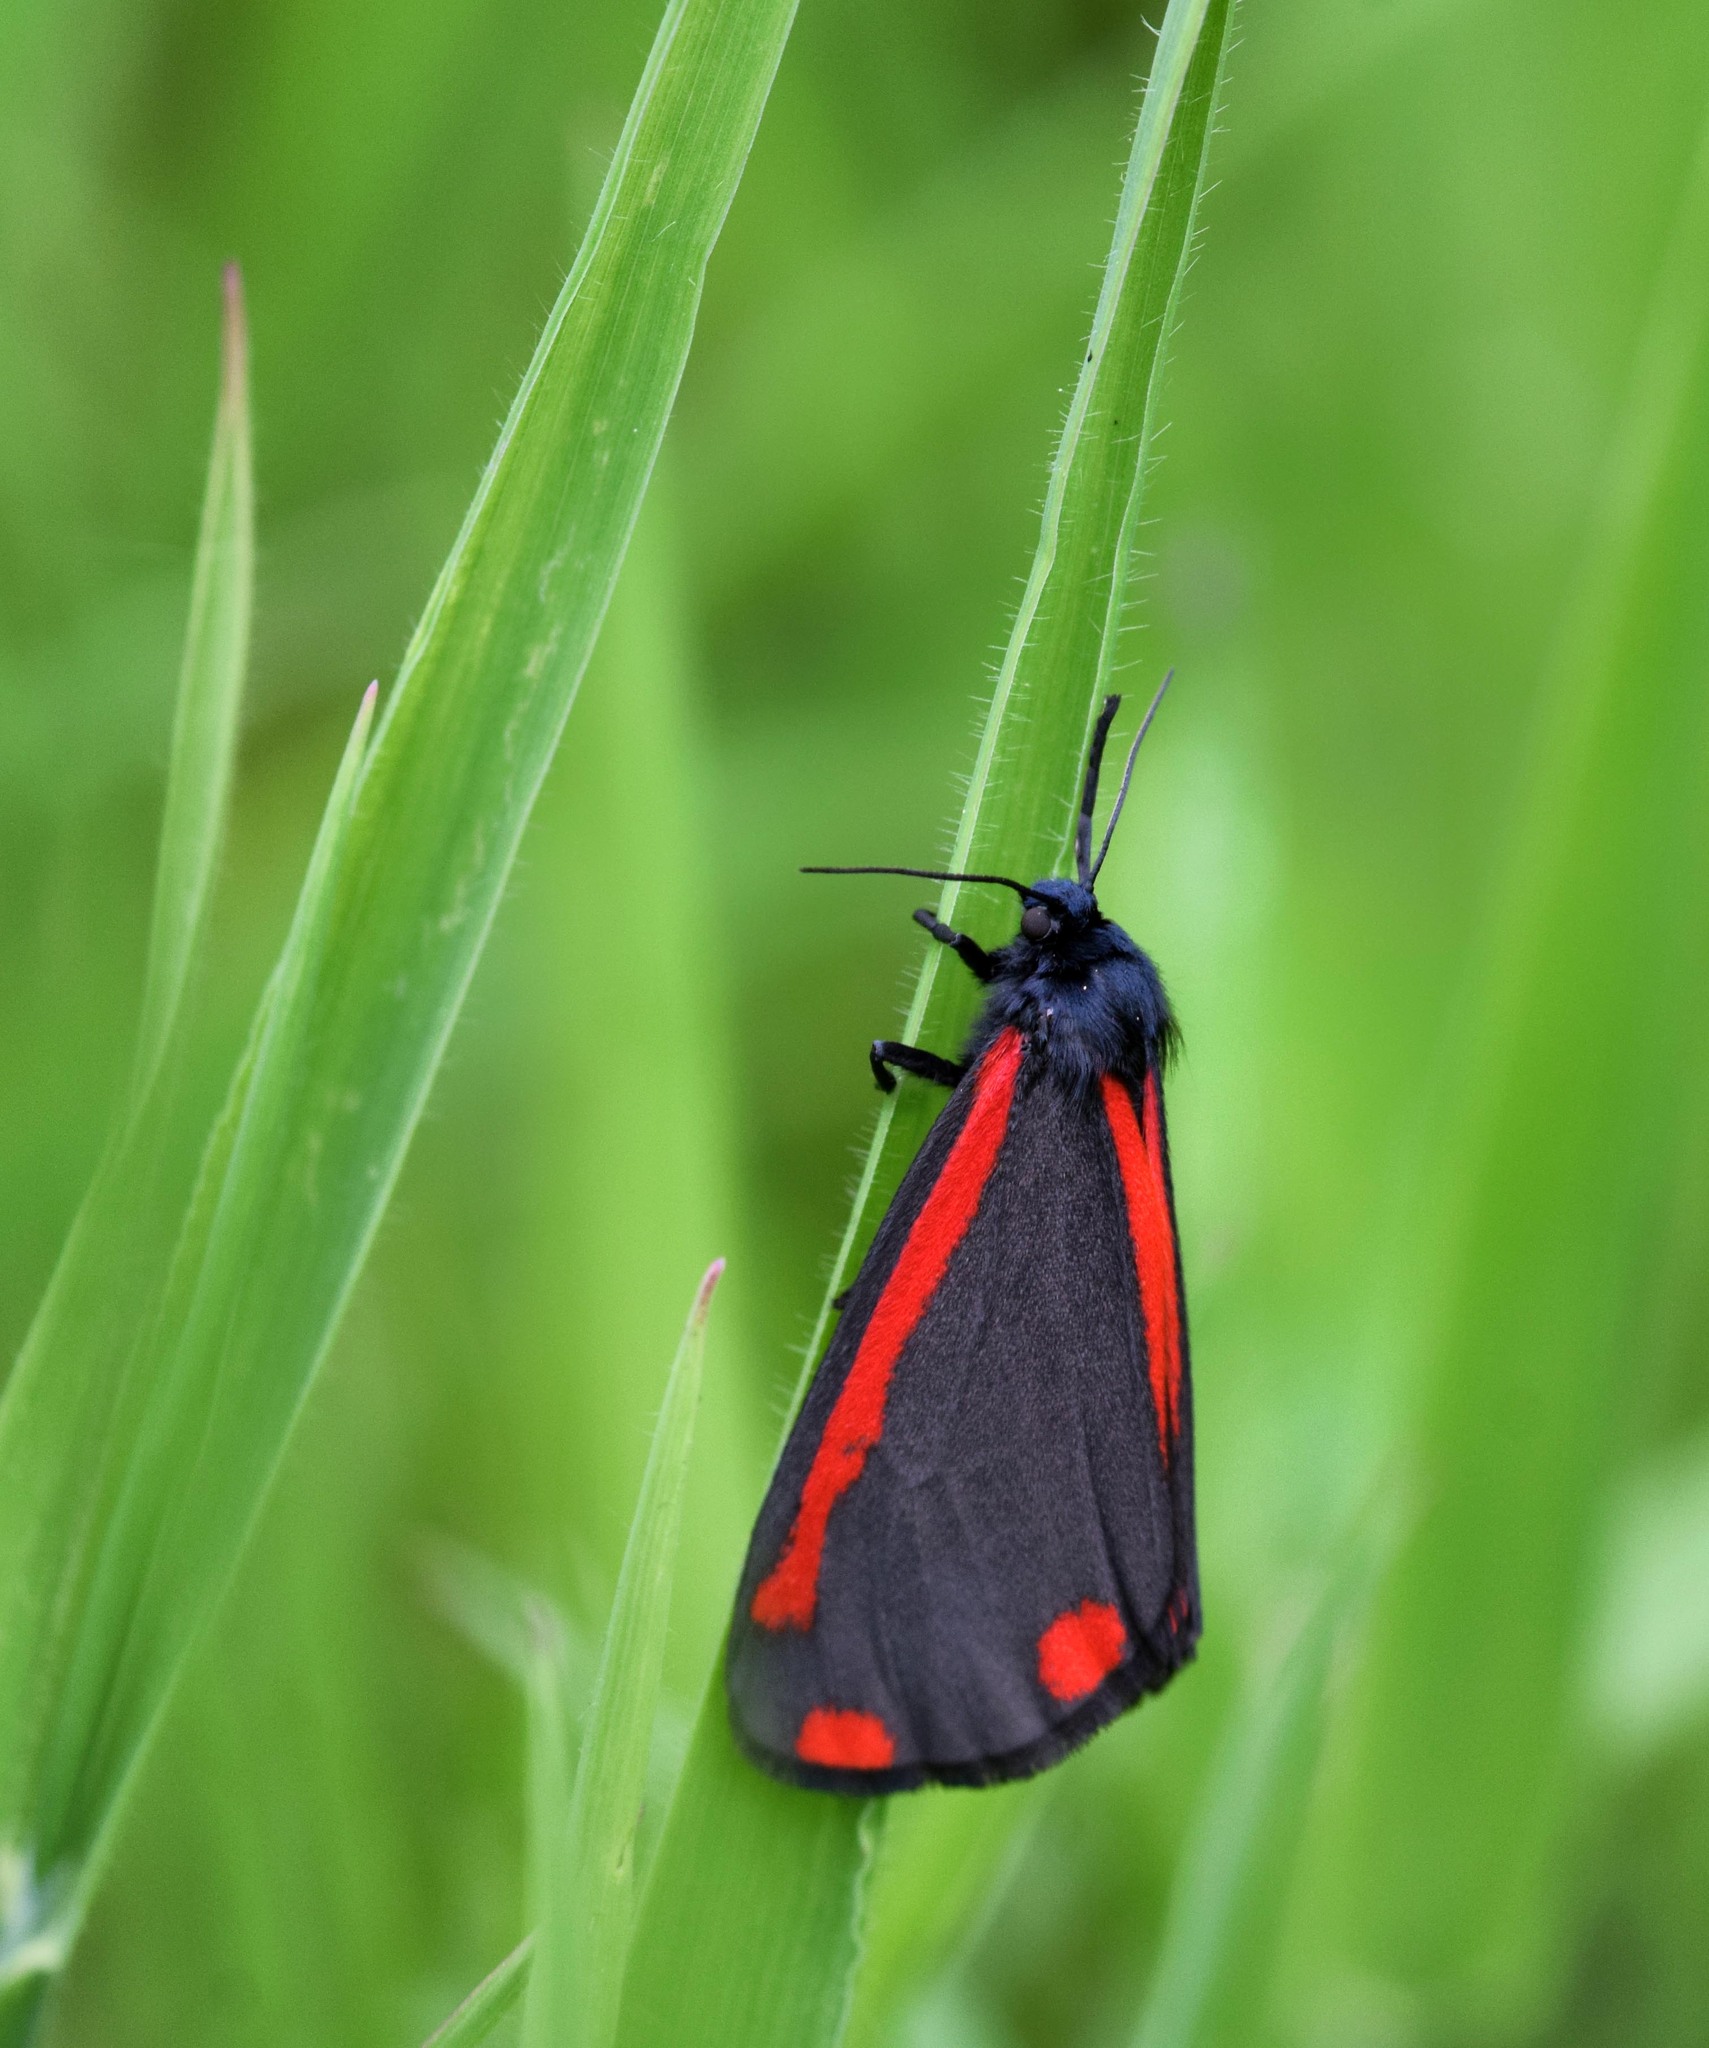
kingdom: Animalia
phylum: Arthropoda
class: Insecta
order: Lepidoptera
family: Erebidae
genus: Tyria
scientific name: Tyria jacobaeae
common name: Cinnabar
